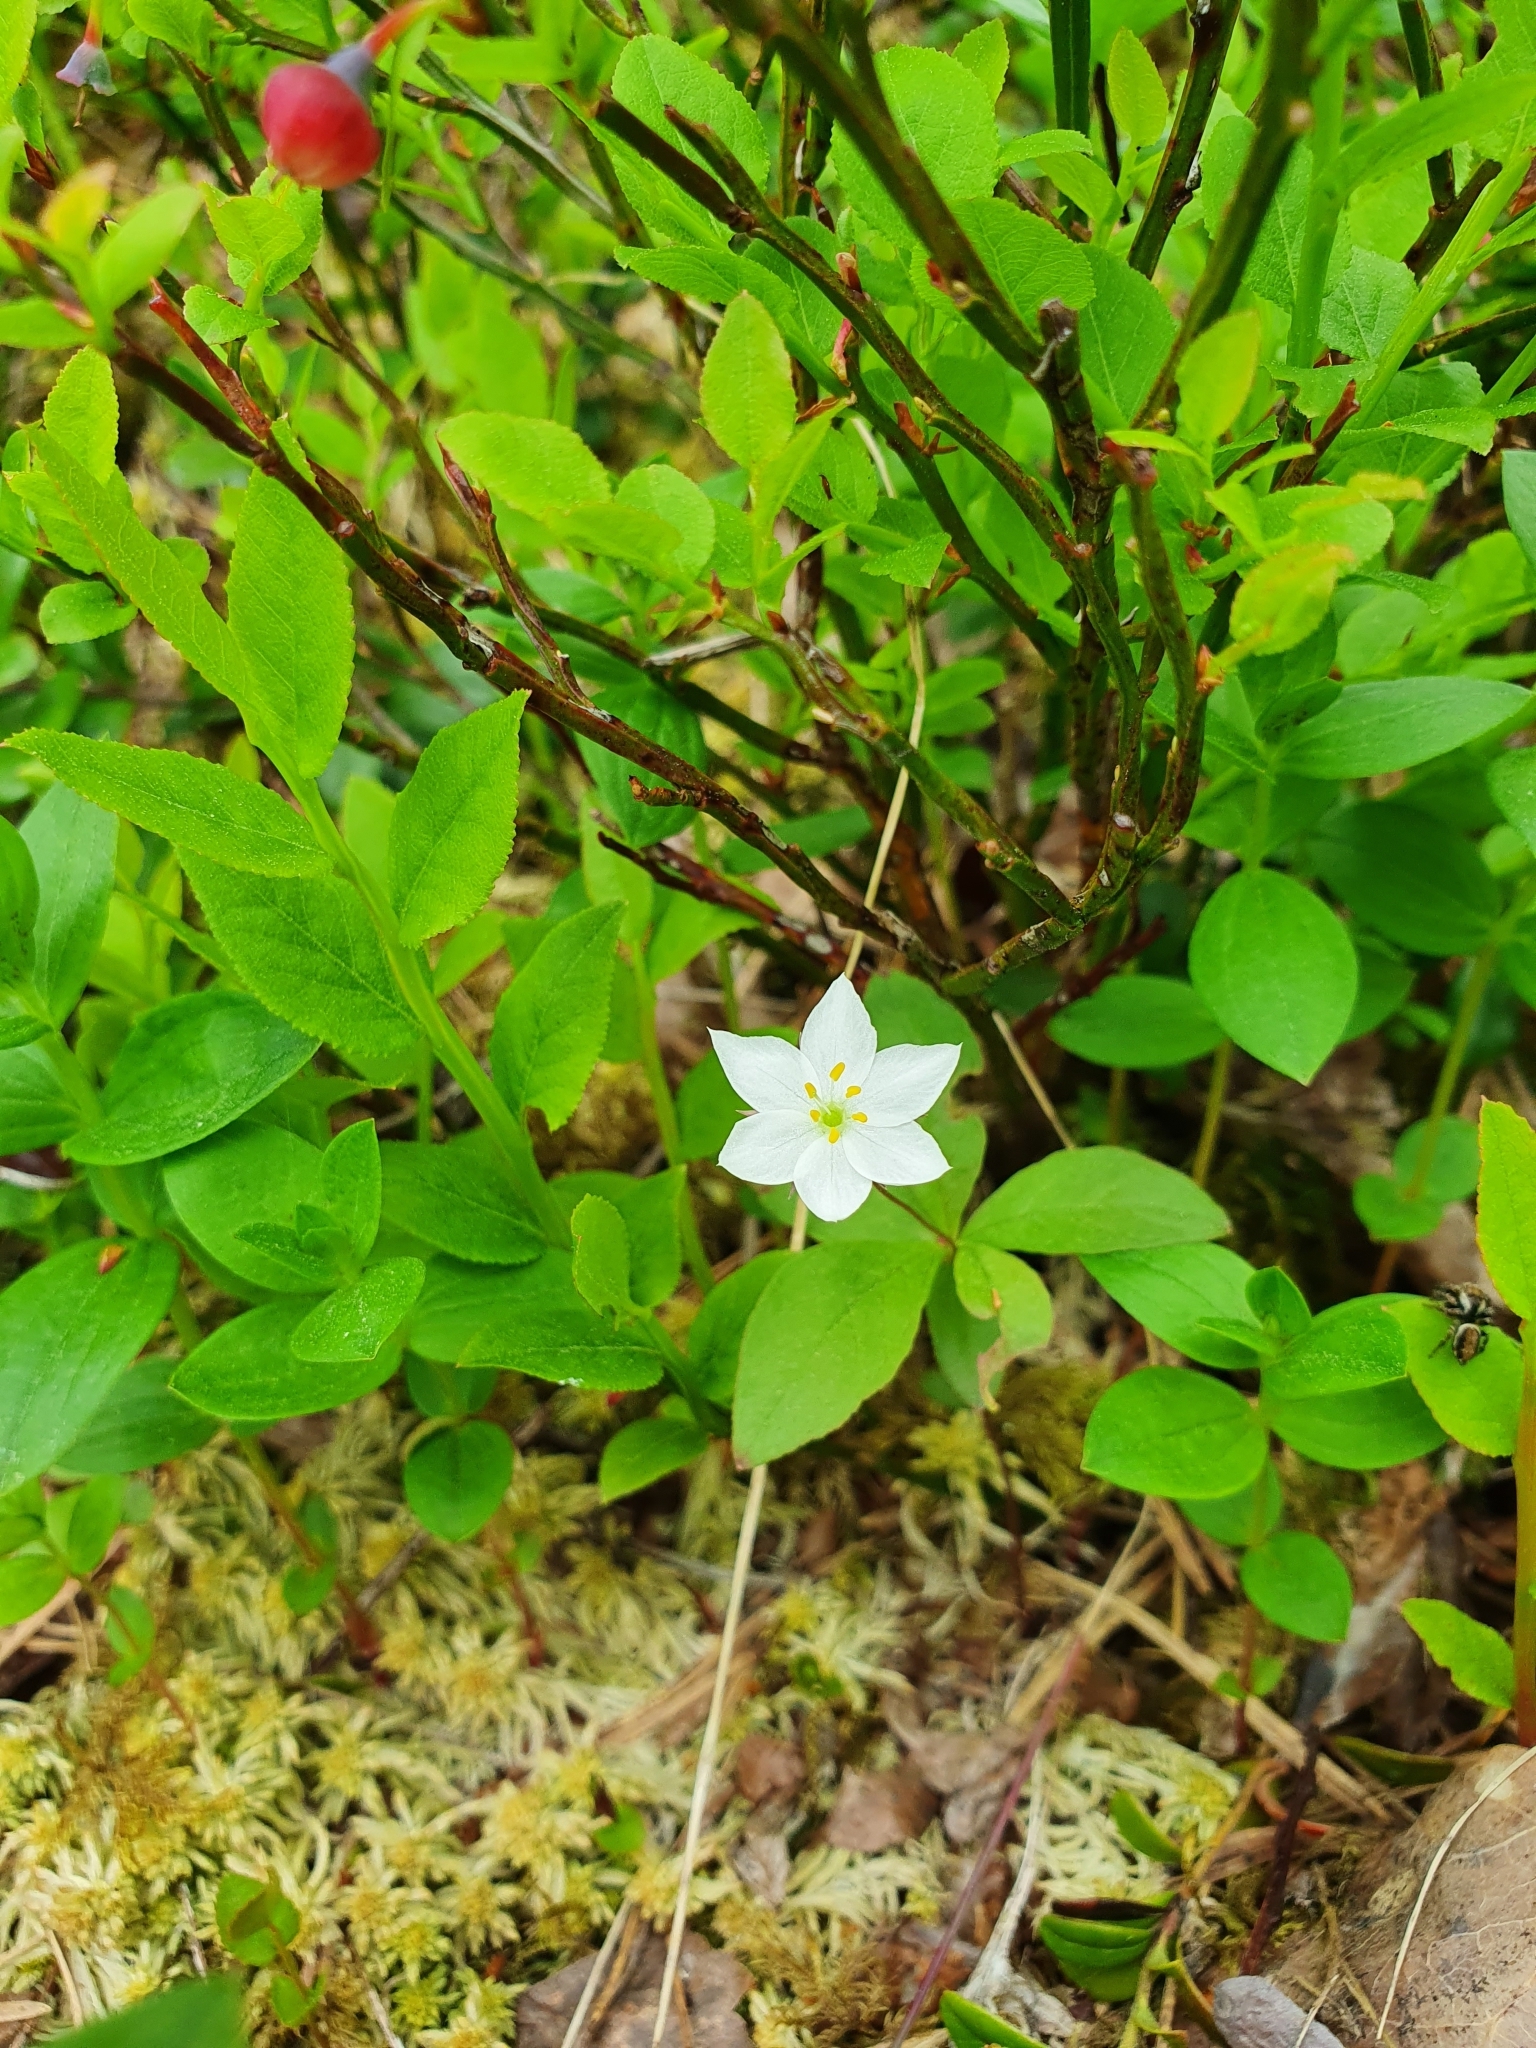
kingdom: Plantae
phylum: Tracheophyta
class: Magnoliopsida
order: Ericales
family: Primulaceae
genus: Lysimachia
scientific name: Lysimachia europaea
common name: Arctic starflower
